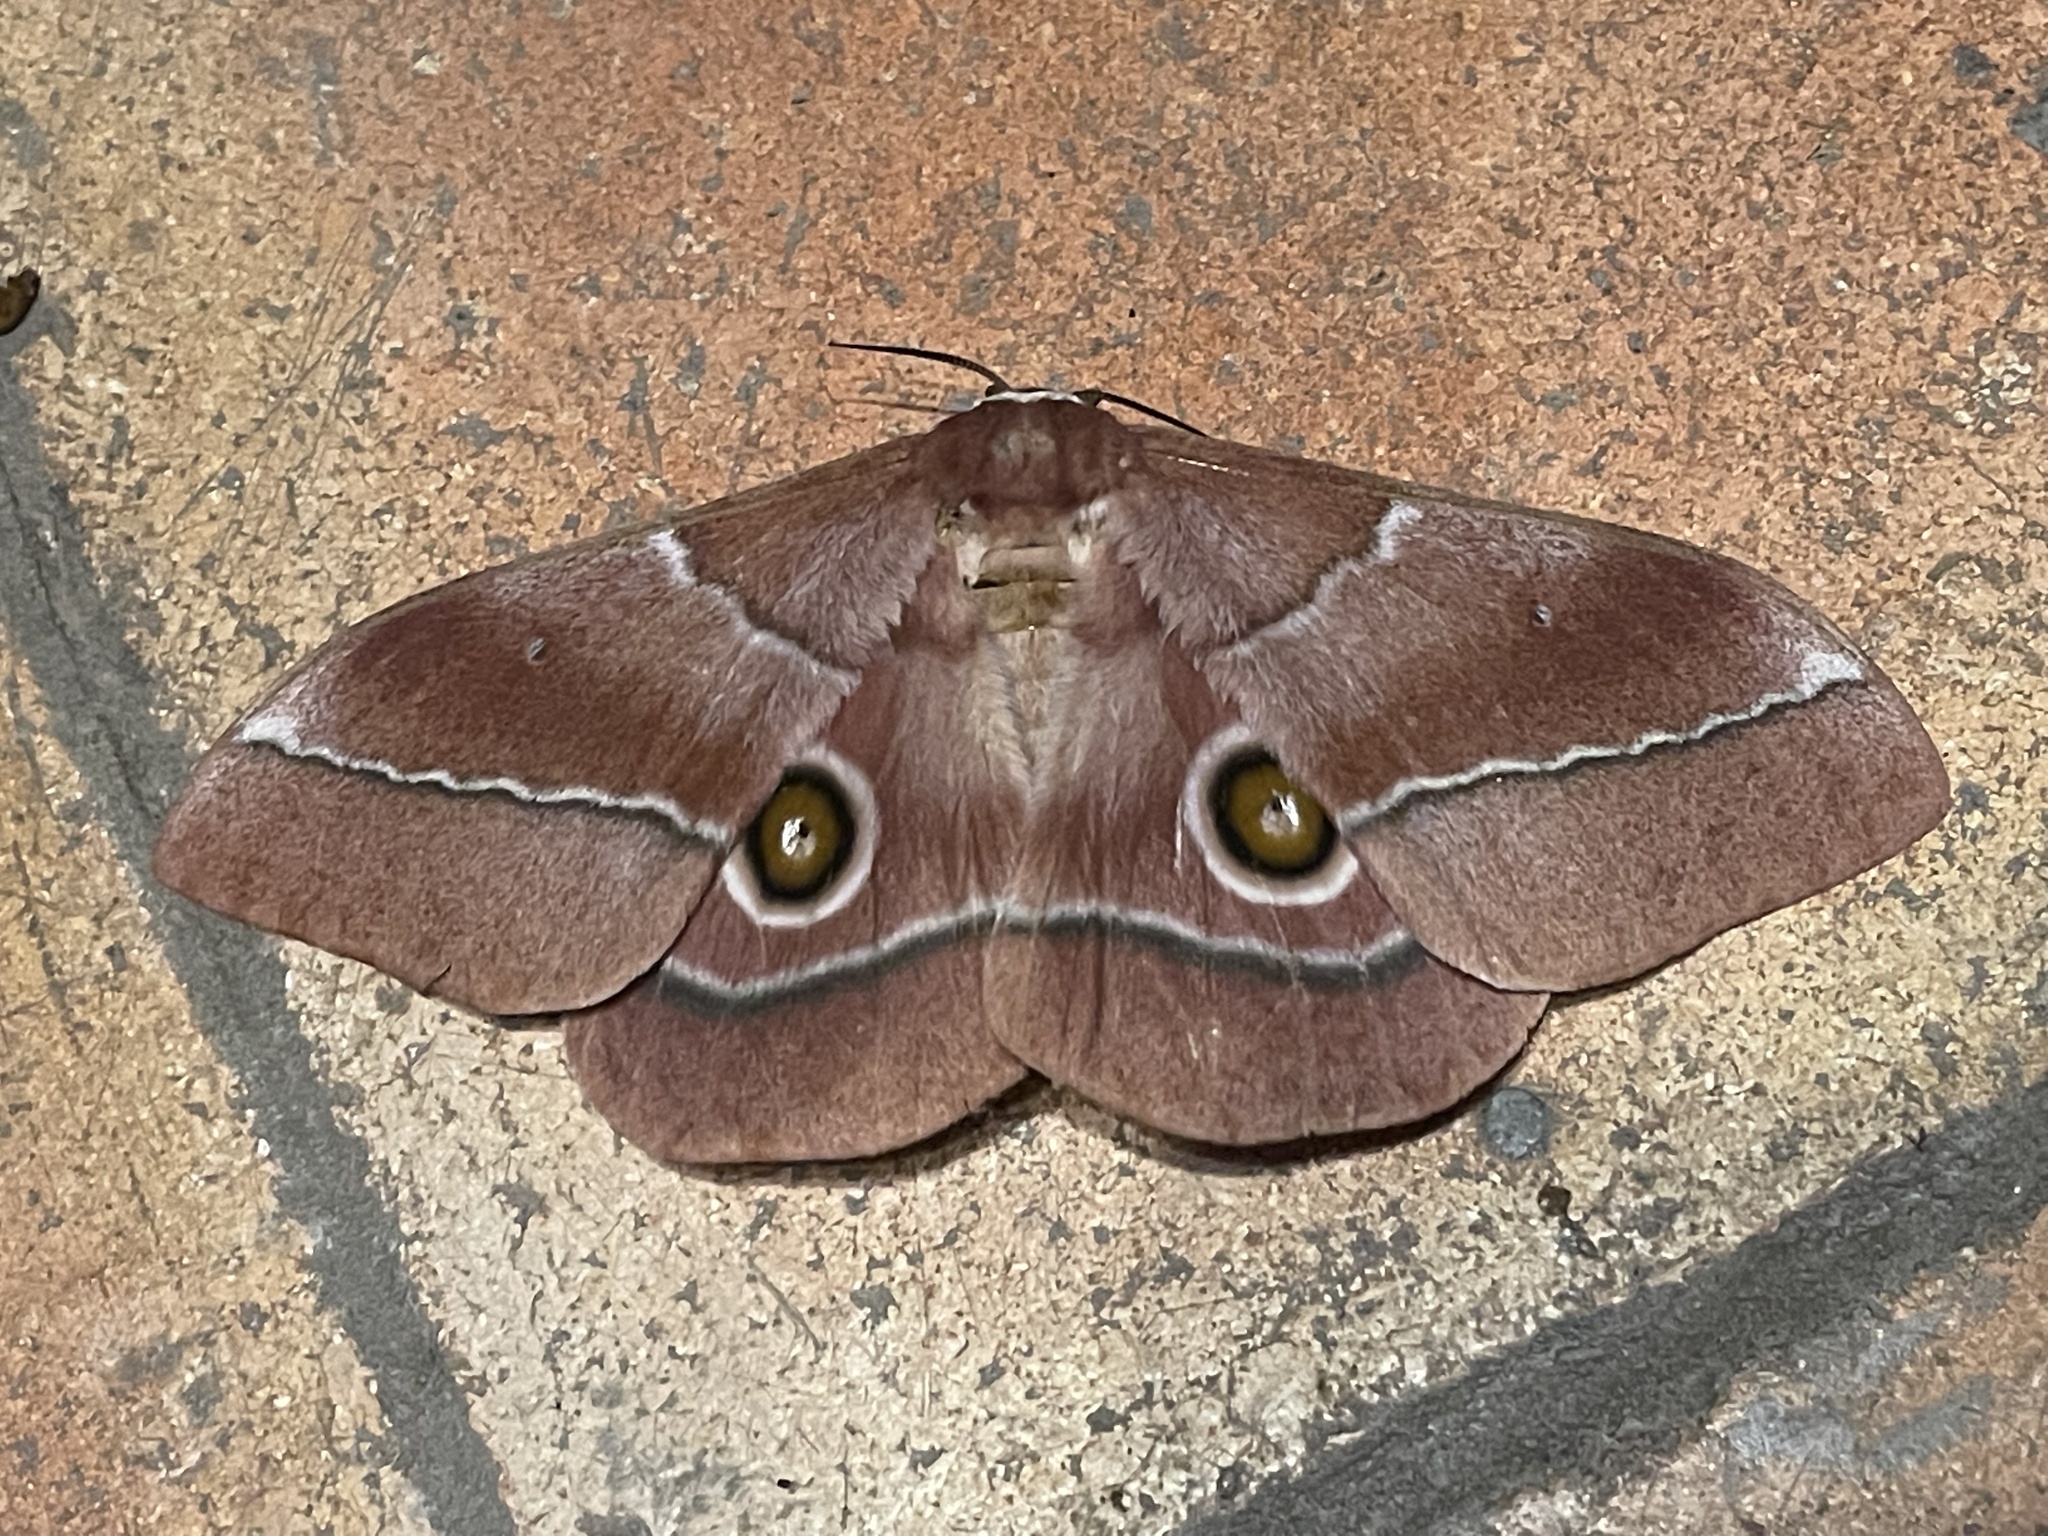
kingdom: Animalia
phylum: Arthropoda
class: Insecta
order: Lepidoptera
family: Saturniidae
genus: Gonimbrasia
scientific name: Gonimbrasia belina
